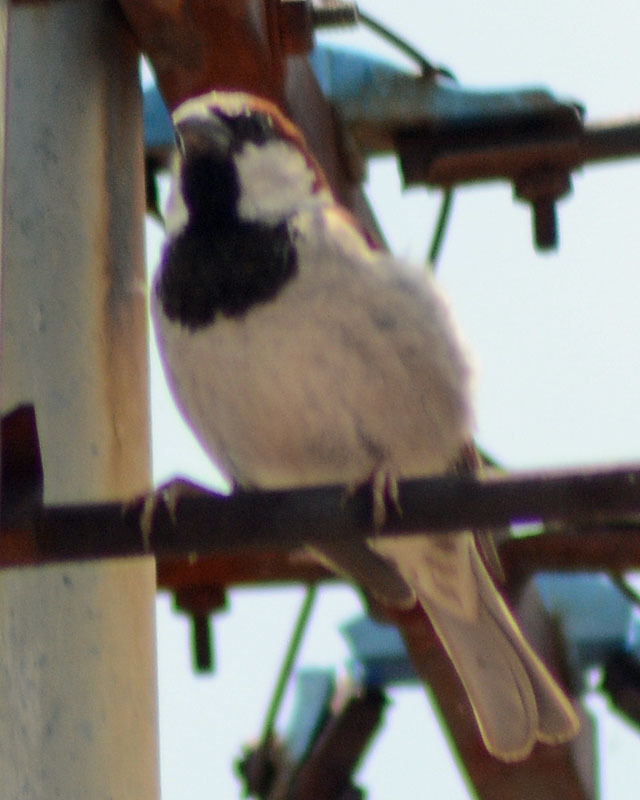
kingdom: Animalia
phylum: Chordata
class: Aves
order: Passeriformes
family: Passeridae
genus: Passer
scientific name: Passer domesticus
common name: House sparrow
